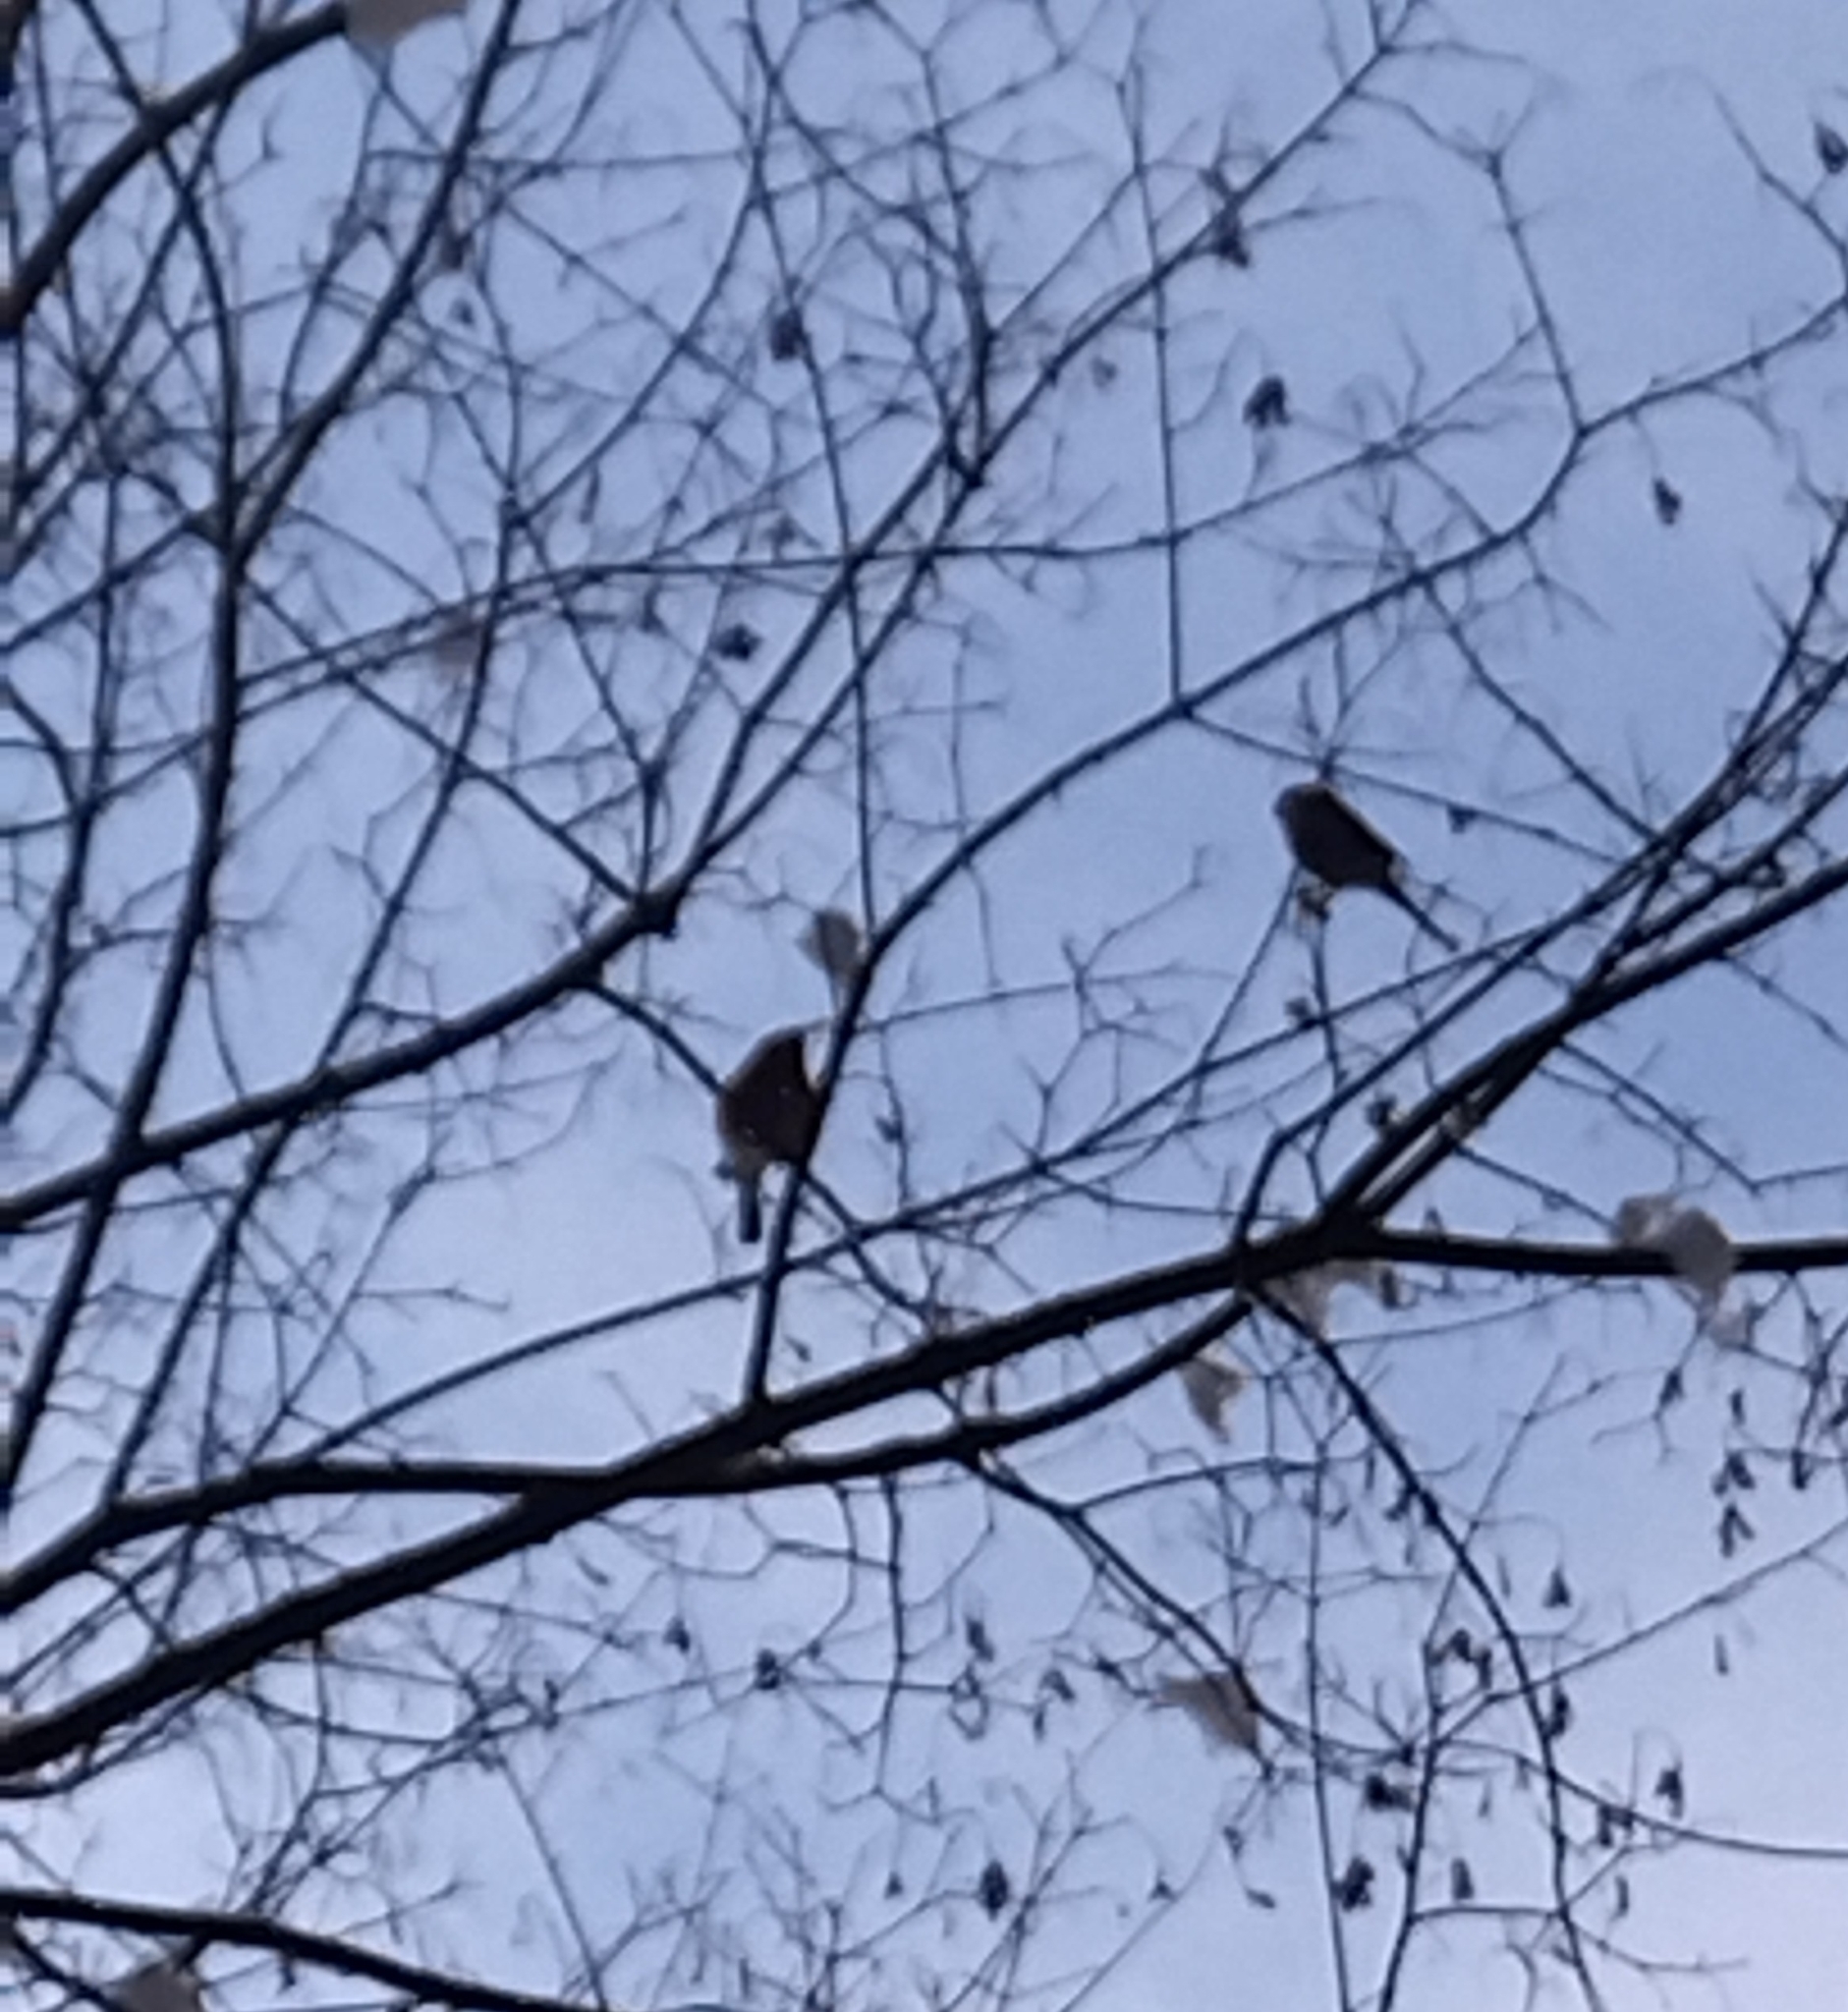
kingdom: Animalia
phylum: Chordata
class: Aves
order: Passeriformes
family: Fringillidae
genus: Pyrrhula
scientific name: Pyrrhula pyrrhula
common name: Eurasian bullfinch
